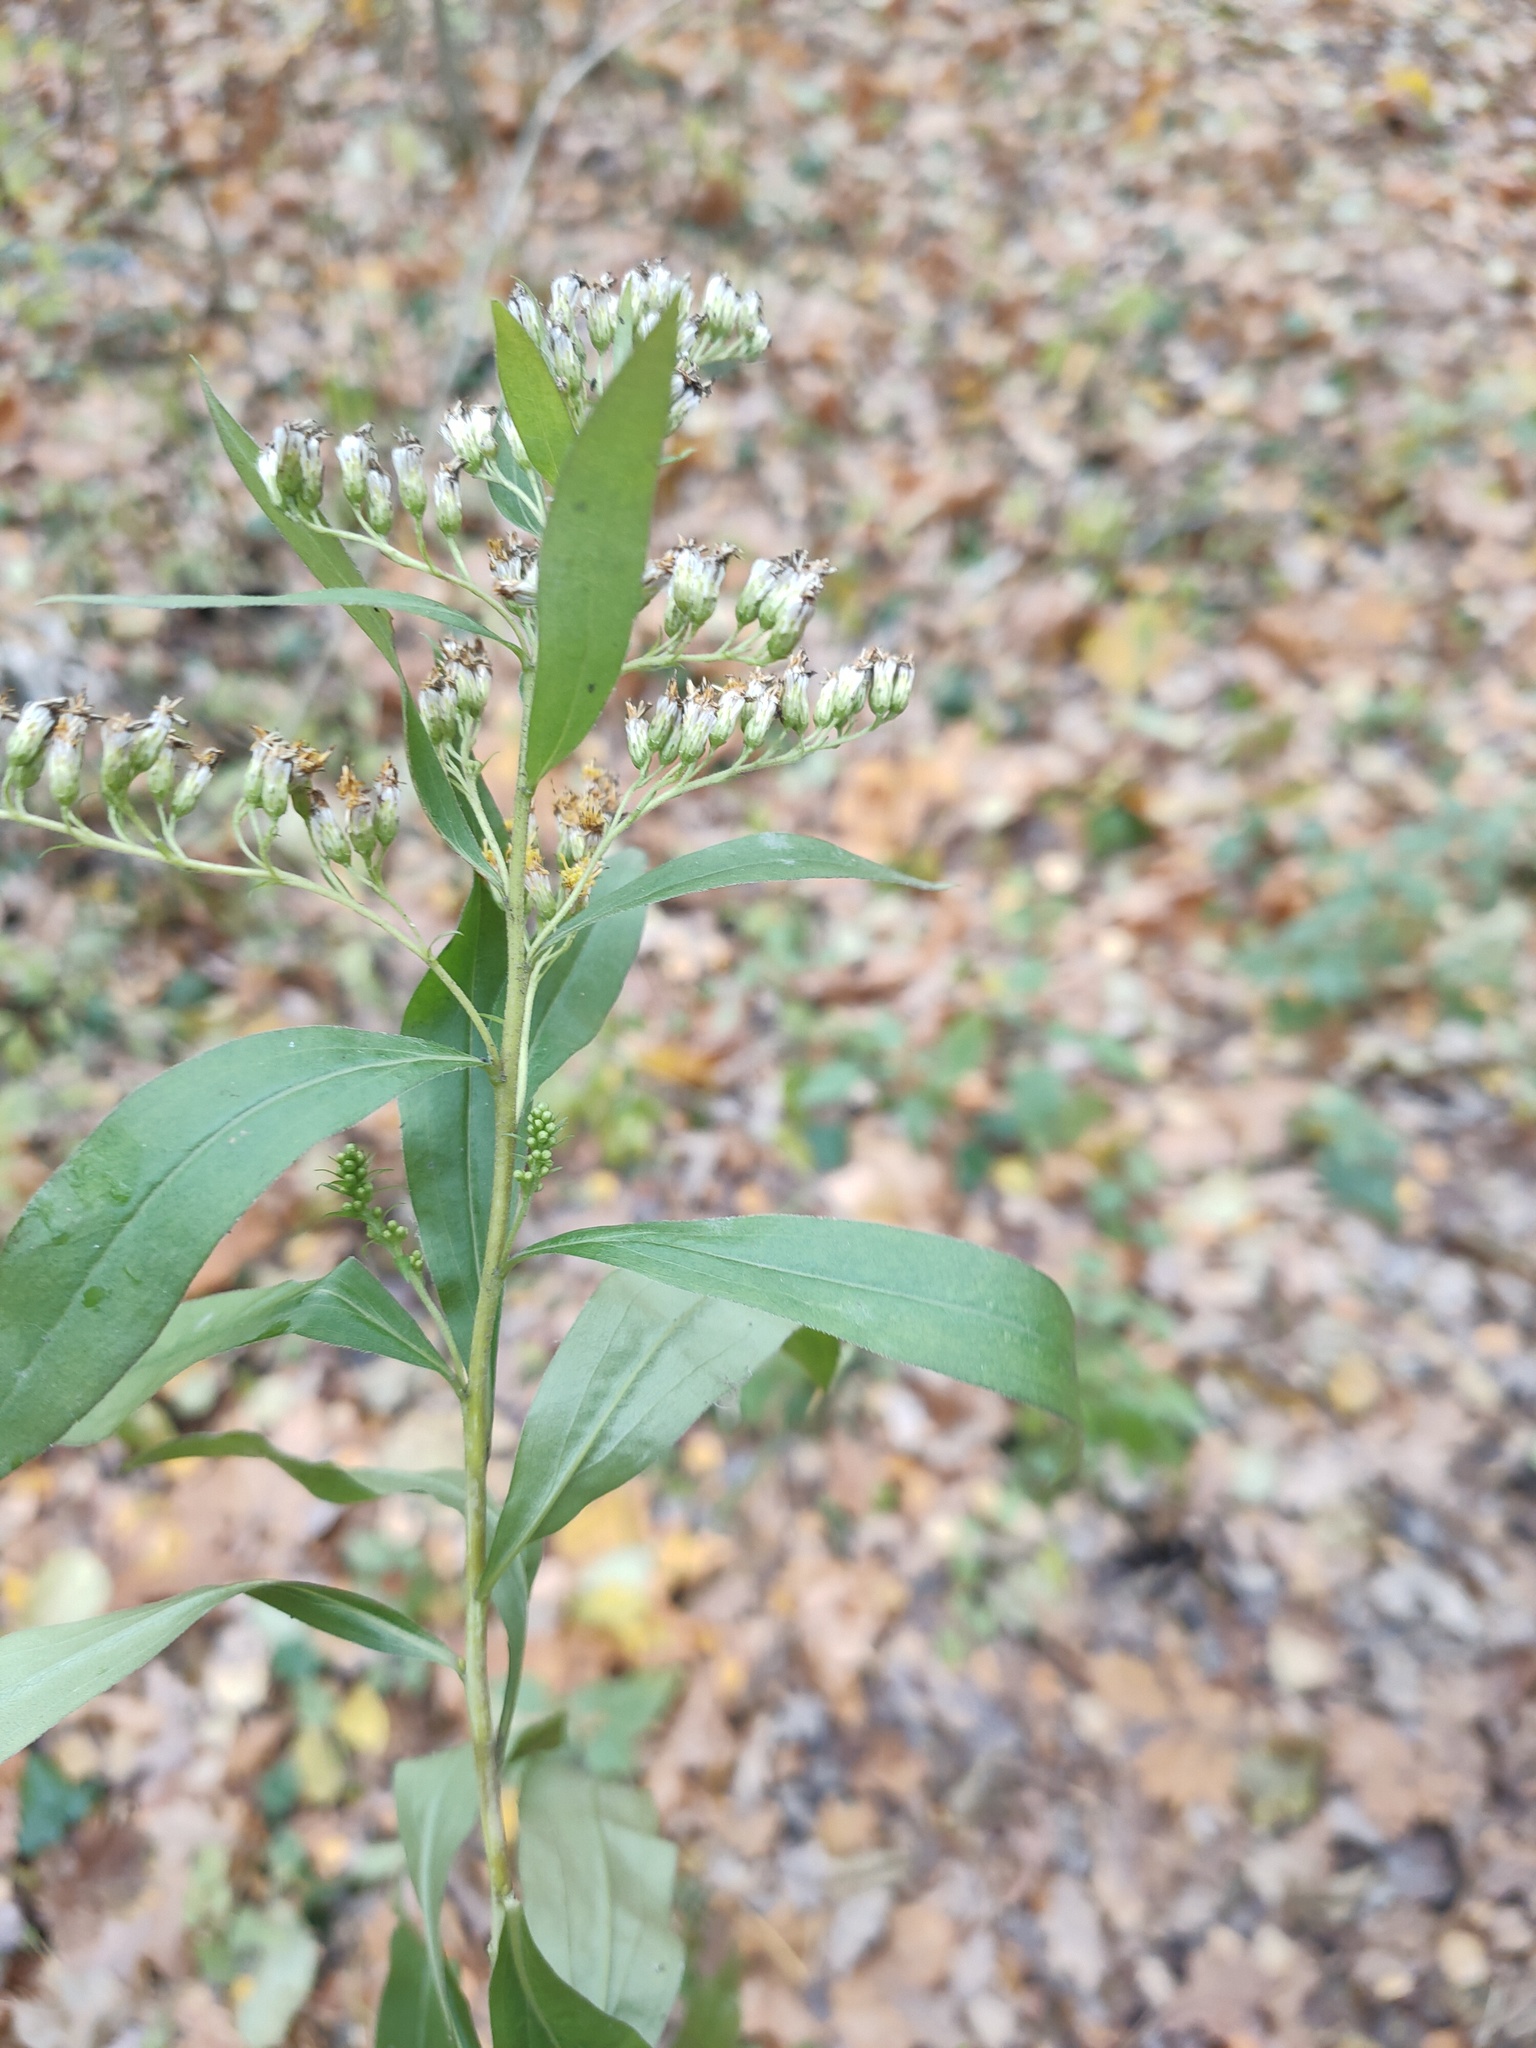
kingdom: Plantae
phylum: Tracheophyta
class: Magnoliopsida
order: Asterales
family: Asteraceae
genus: Solidago
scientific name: Solidago gigantea
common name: Giant goldenrod
